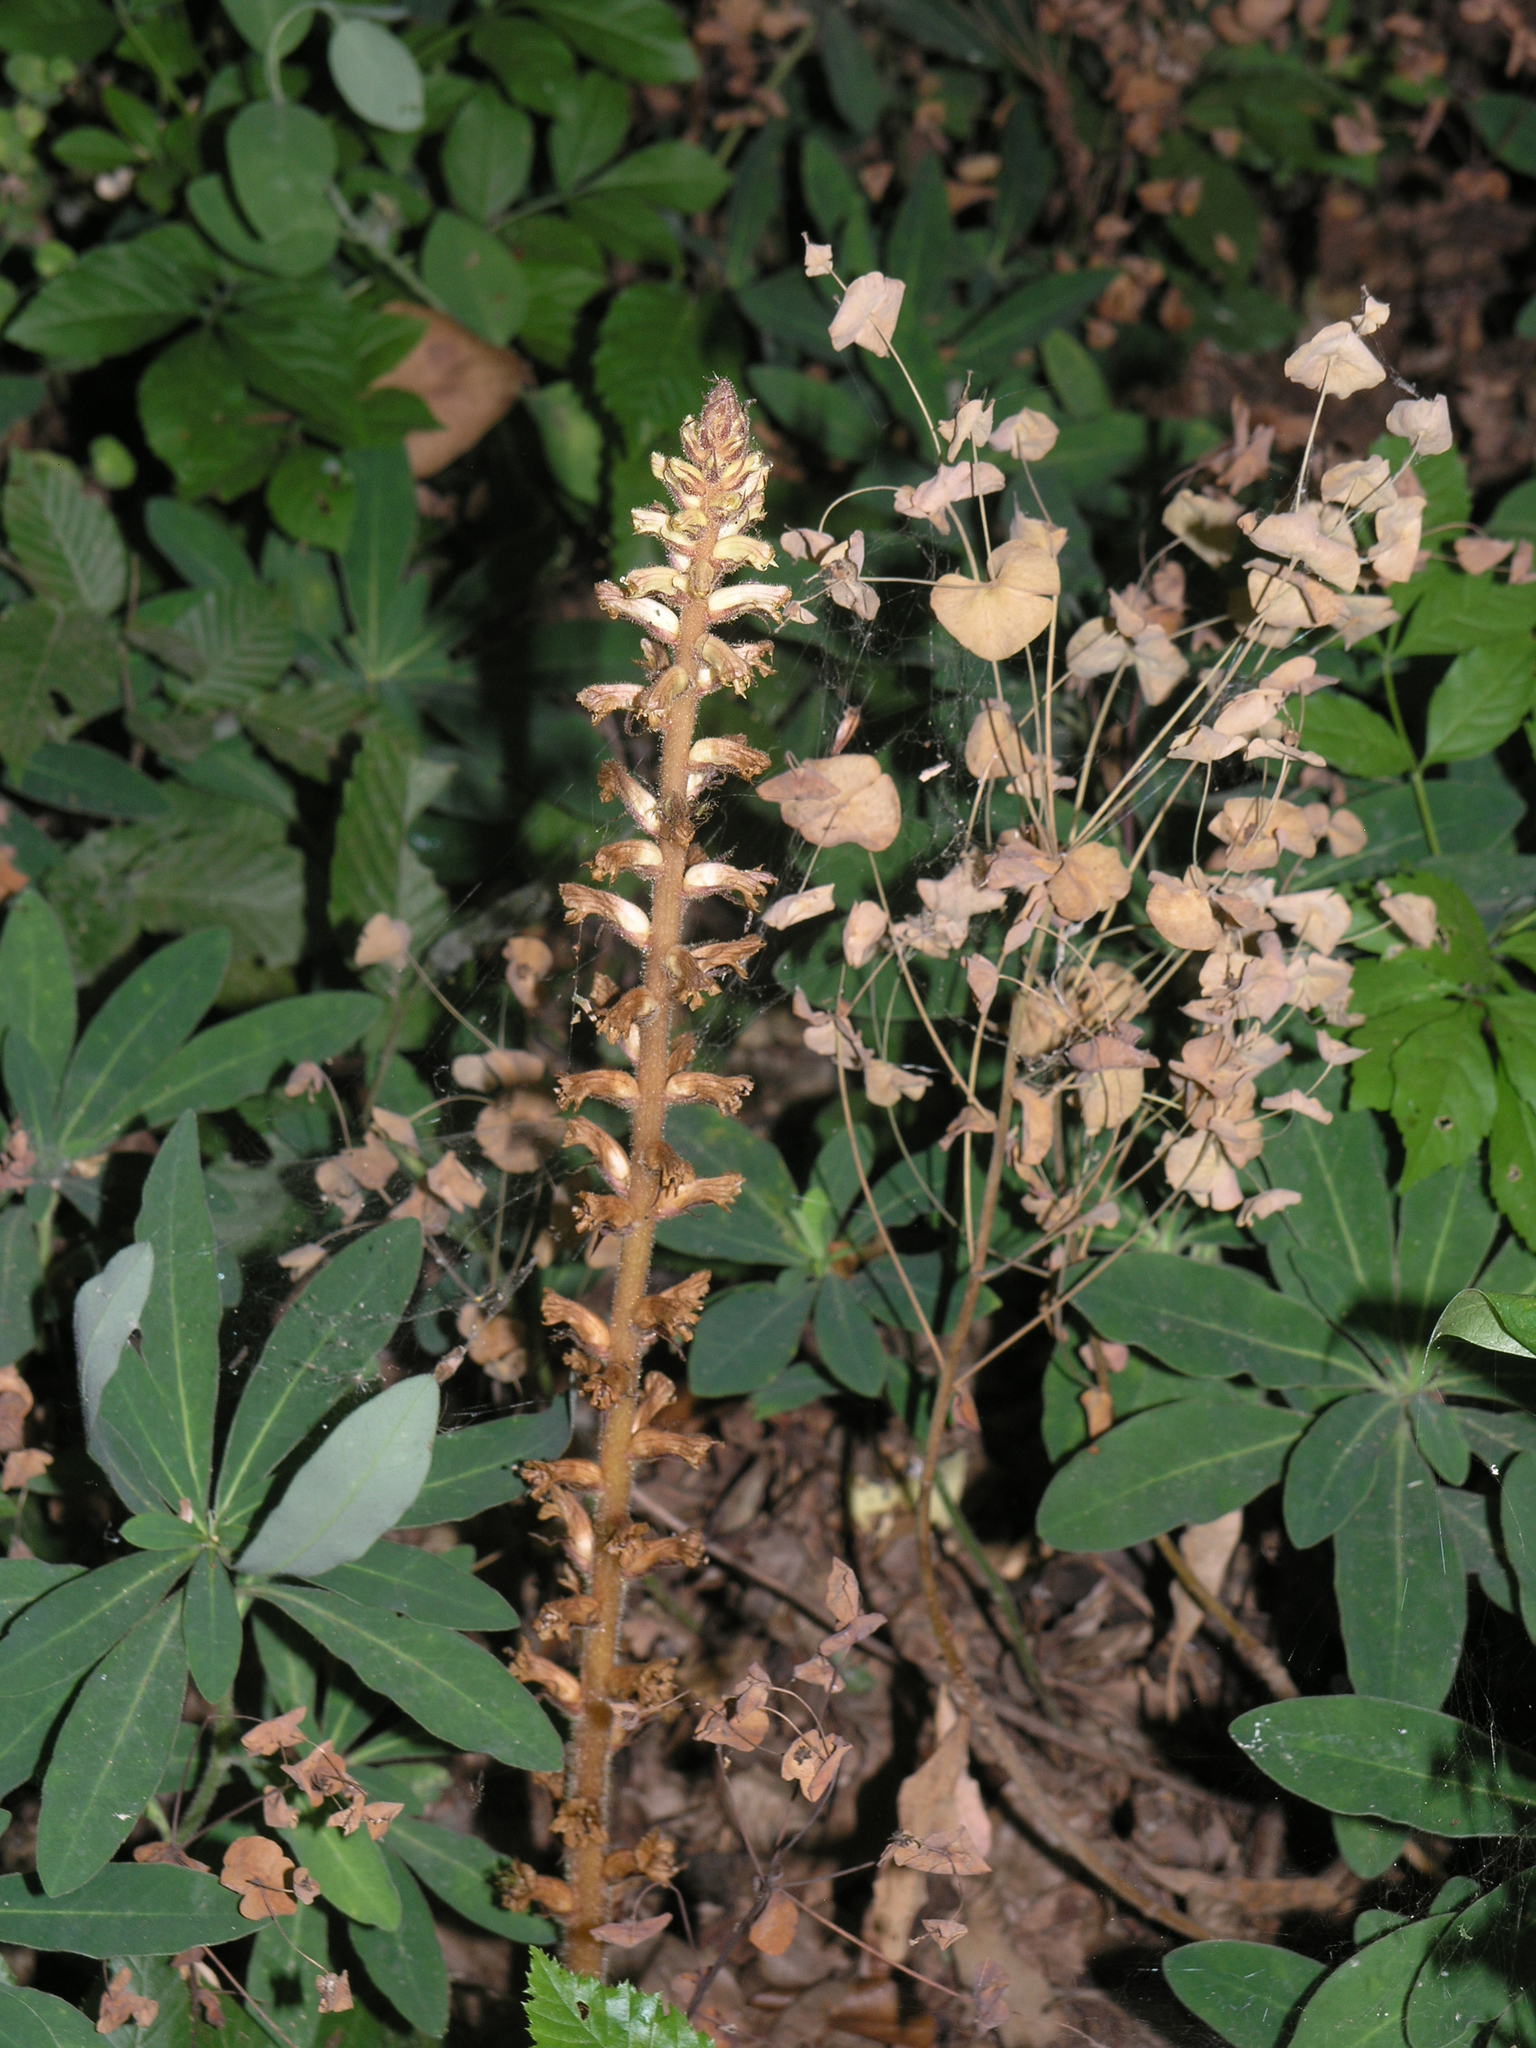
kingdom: Plantae
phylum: Tracheophyta
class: Magnoliopsida
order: Lamiales
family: Orobanchaceae
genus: Orobanche
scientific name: Orobanche hederae
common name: Ivy broomrape
